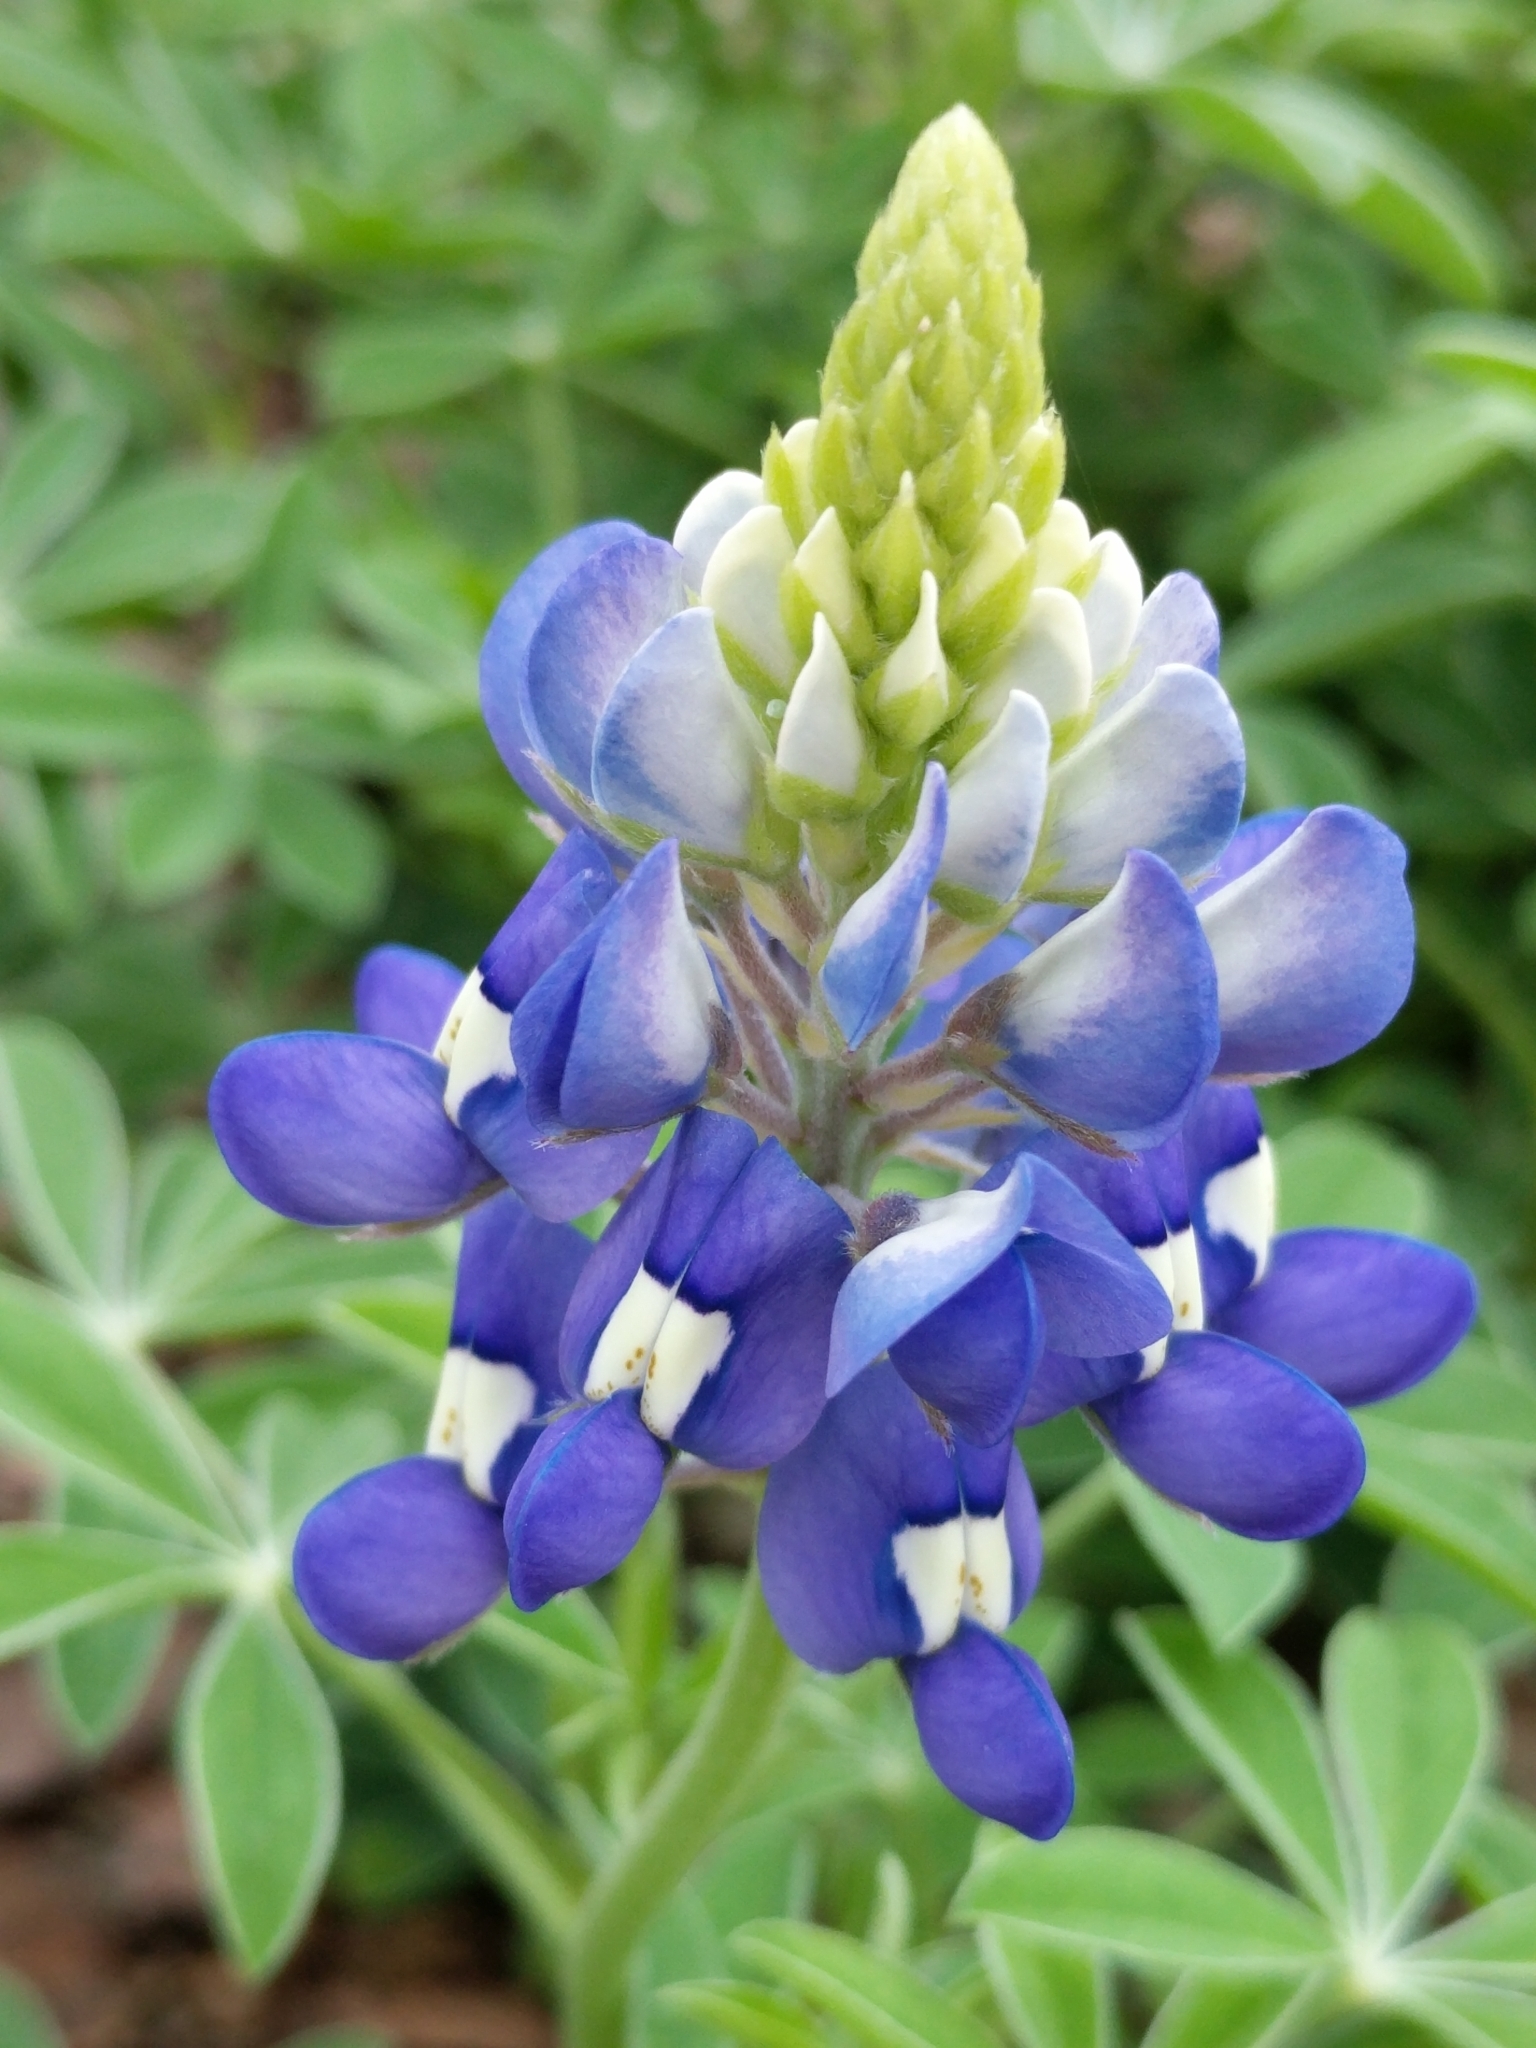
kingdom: Plantae
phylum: Tracheophyta
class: Magnoliopsida
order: Fabales
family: Fabaceae
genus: Lupinus
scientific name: Lupinus texensis
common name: Texas bluebonnet
